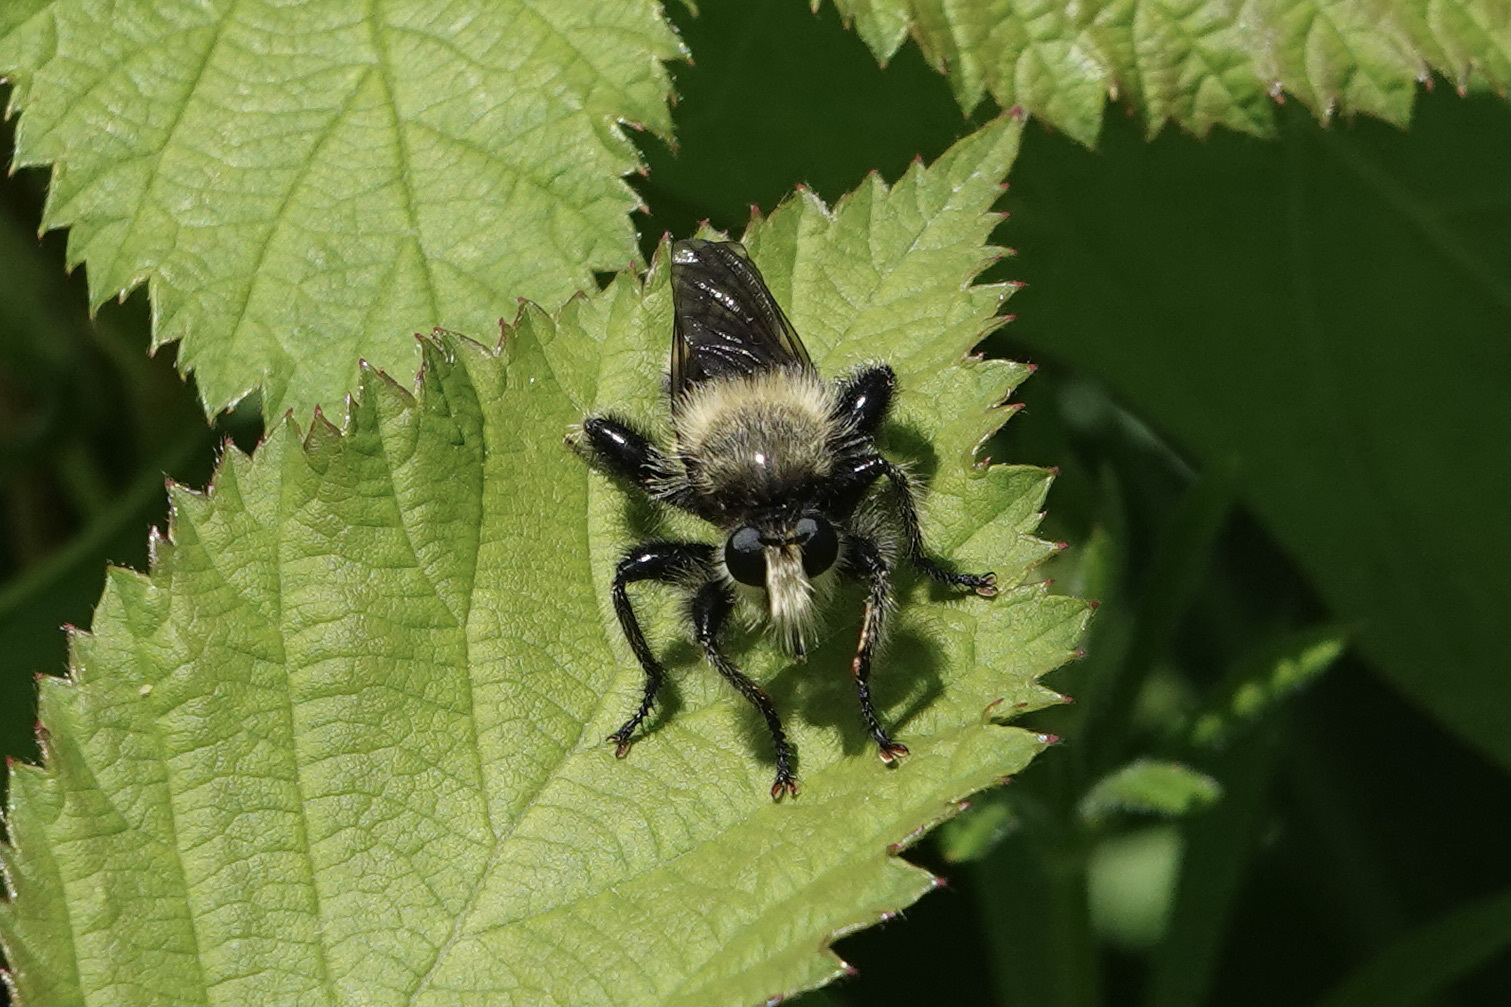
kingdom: Animalia
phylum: Arthropoda
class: Insecta
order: Diptera
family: Asilidae
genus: Laphria
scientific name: Laphria columbica
